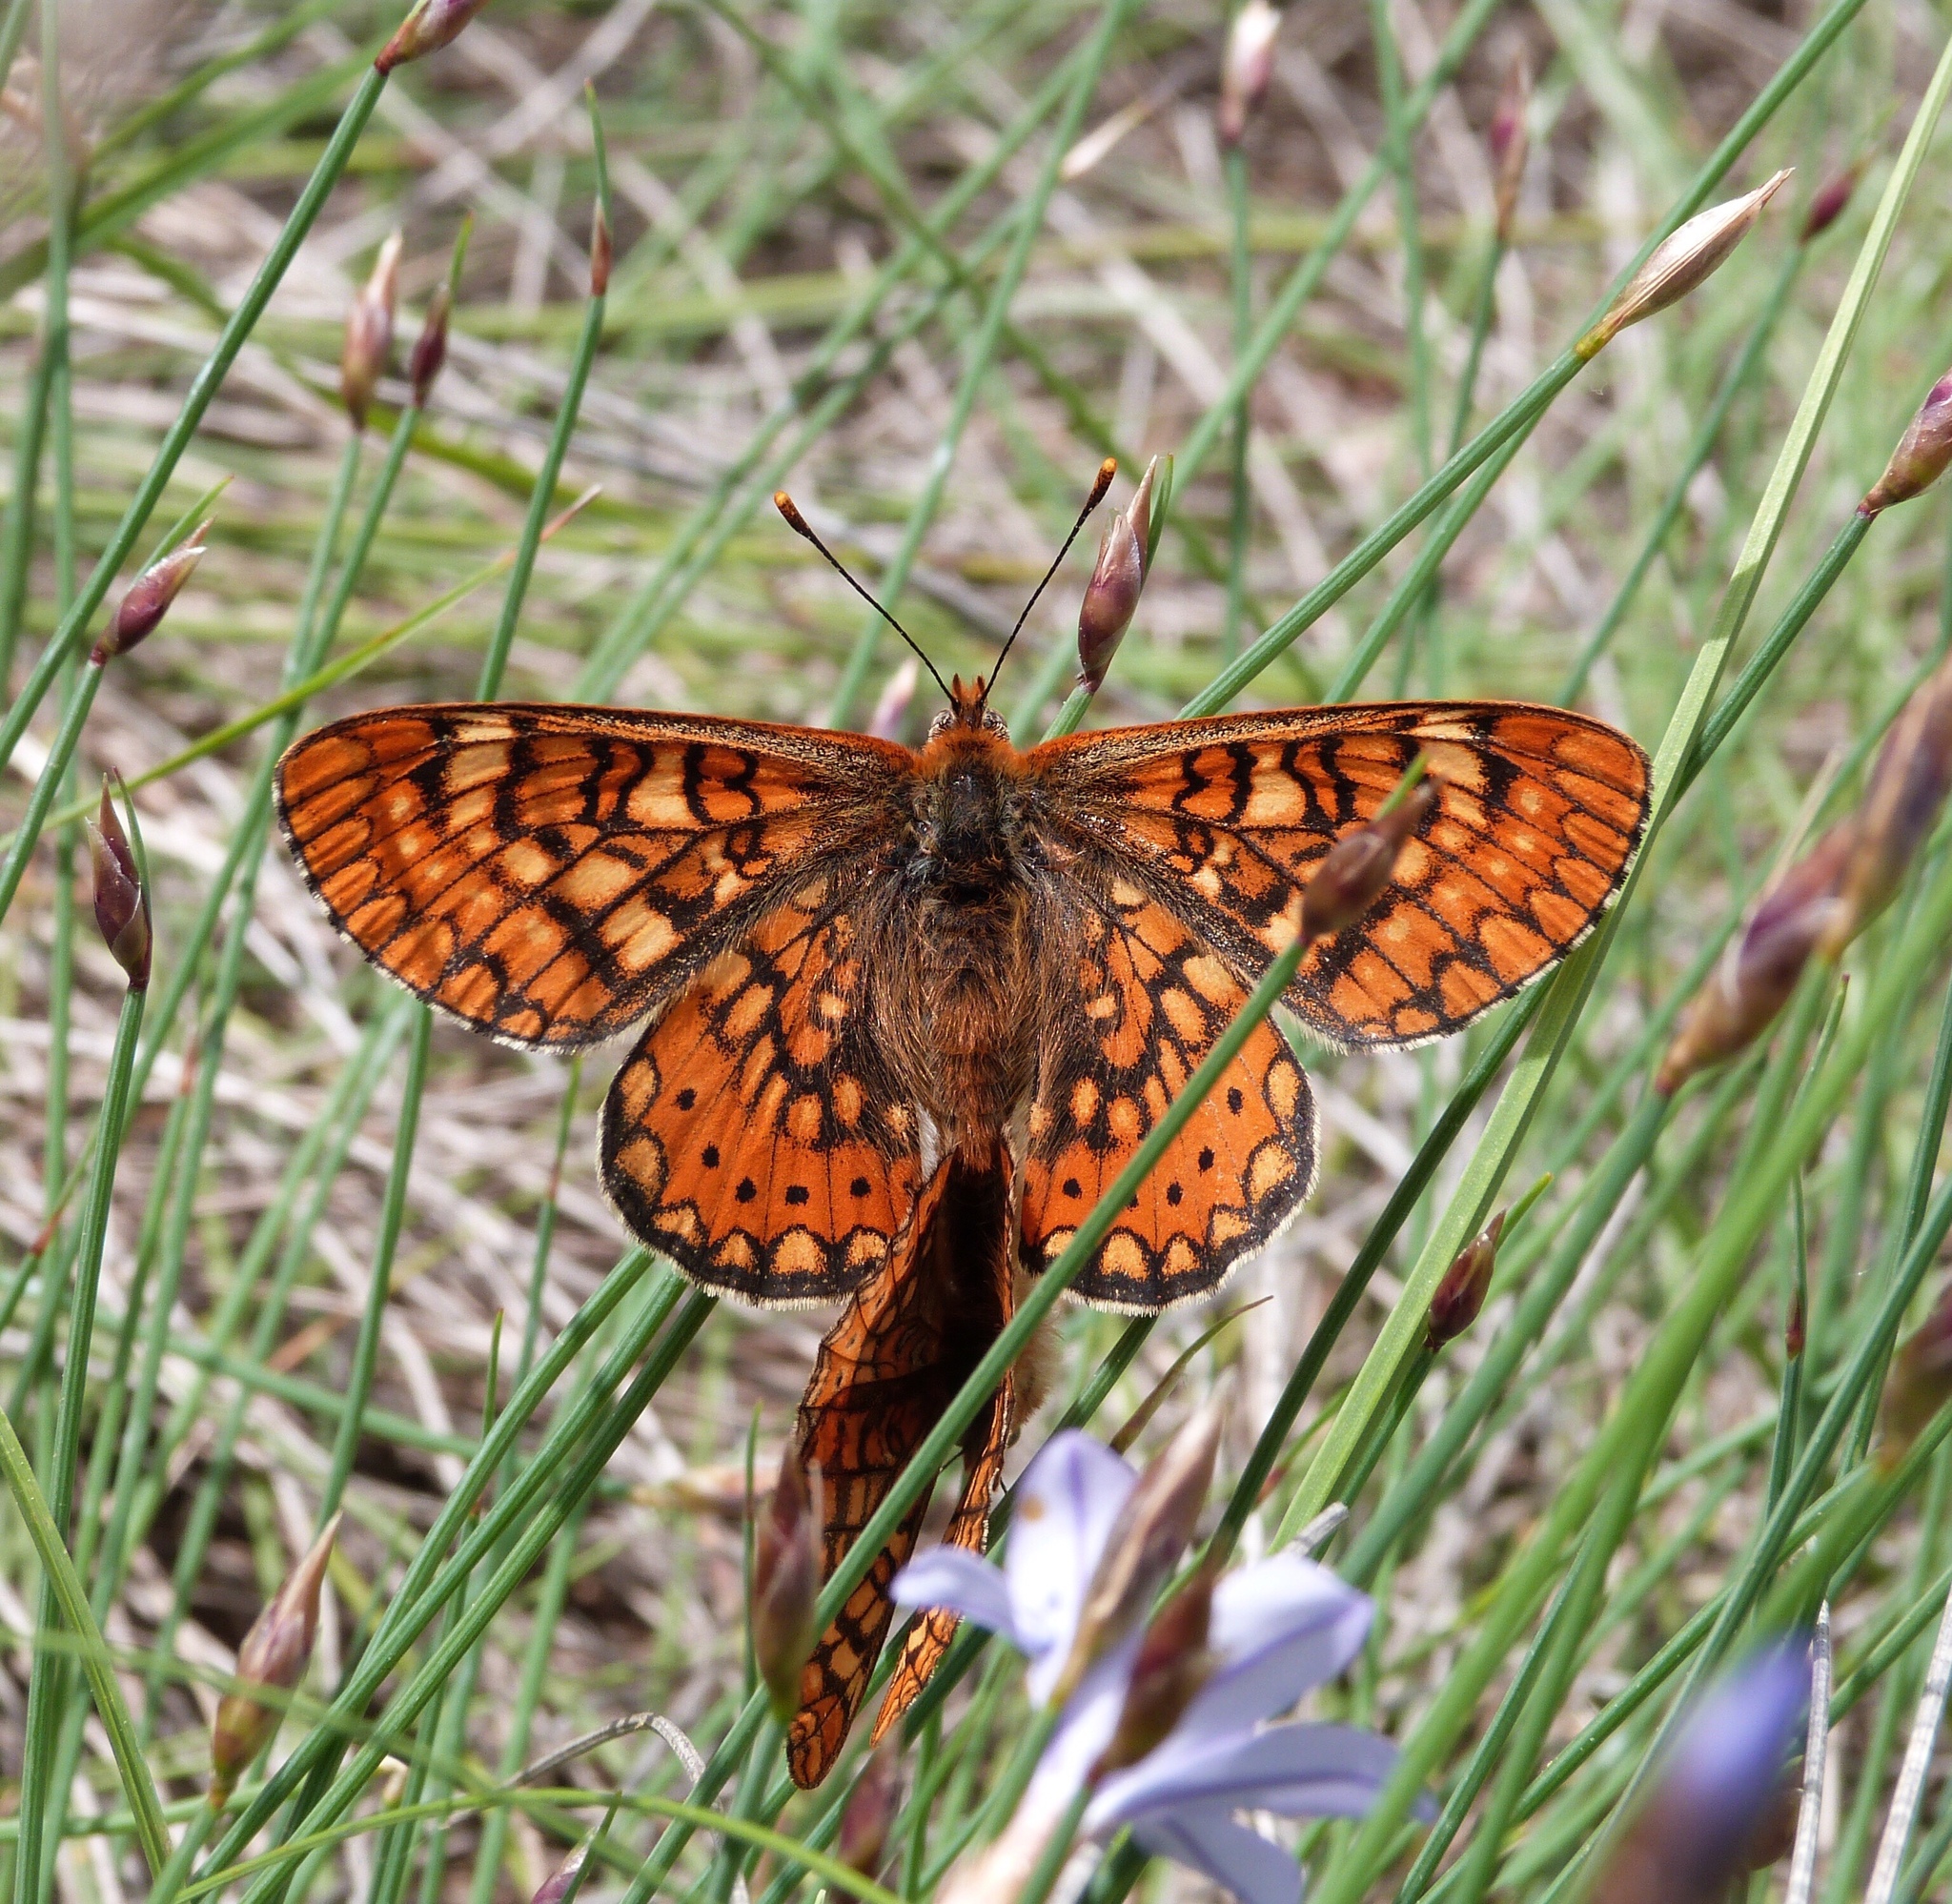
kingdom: Animalia
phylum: Arthropoda
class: Insecta
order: Lepidoptera
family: Nymphalidae
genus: Euphydryas
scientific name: Euphydryas aurinia
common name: Marsh fritillary
